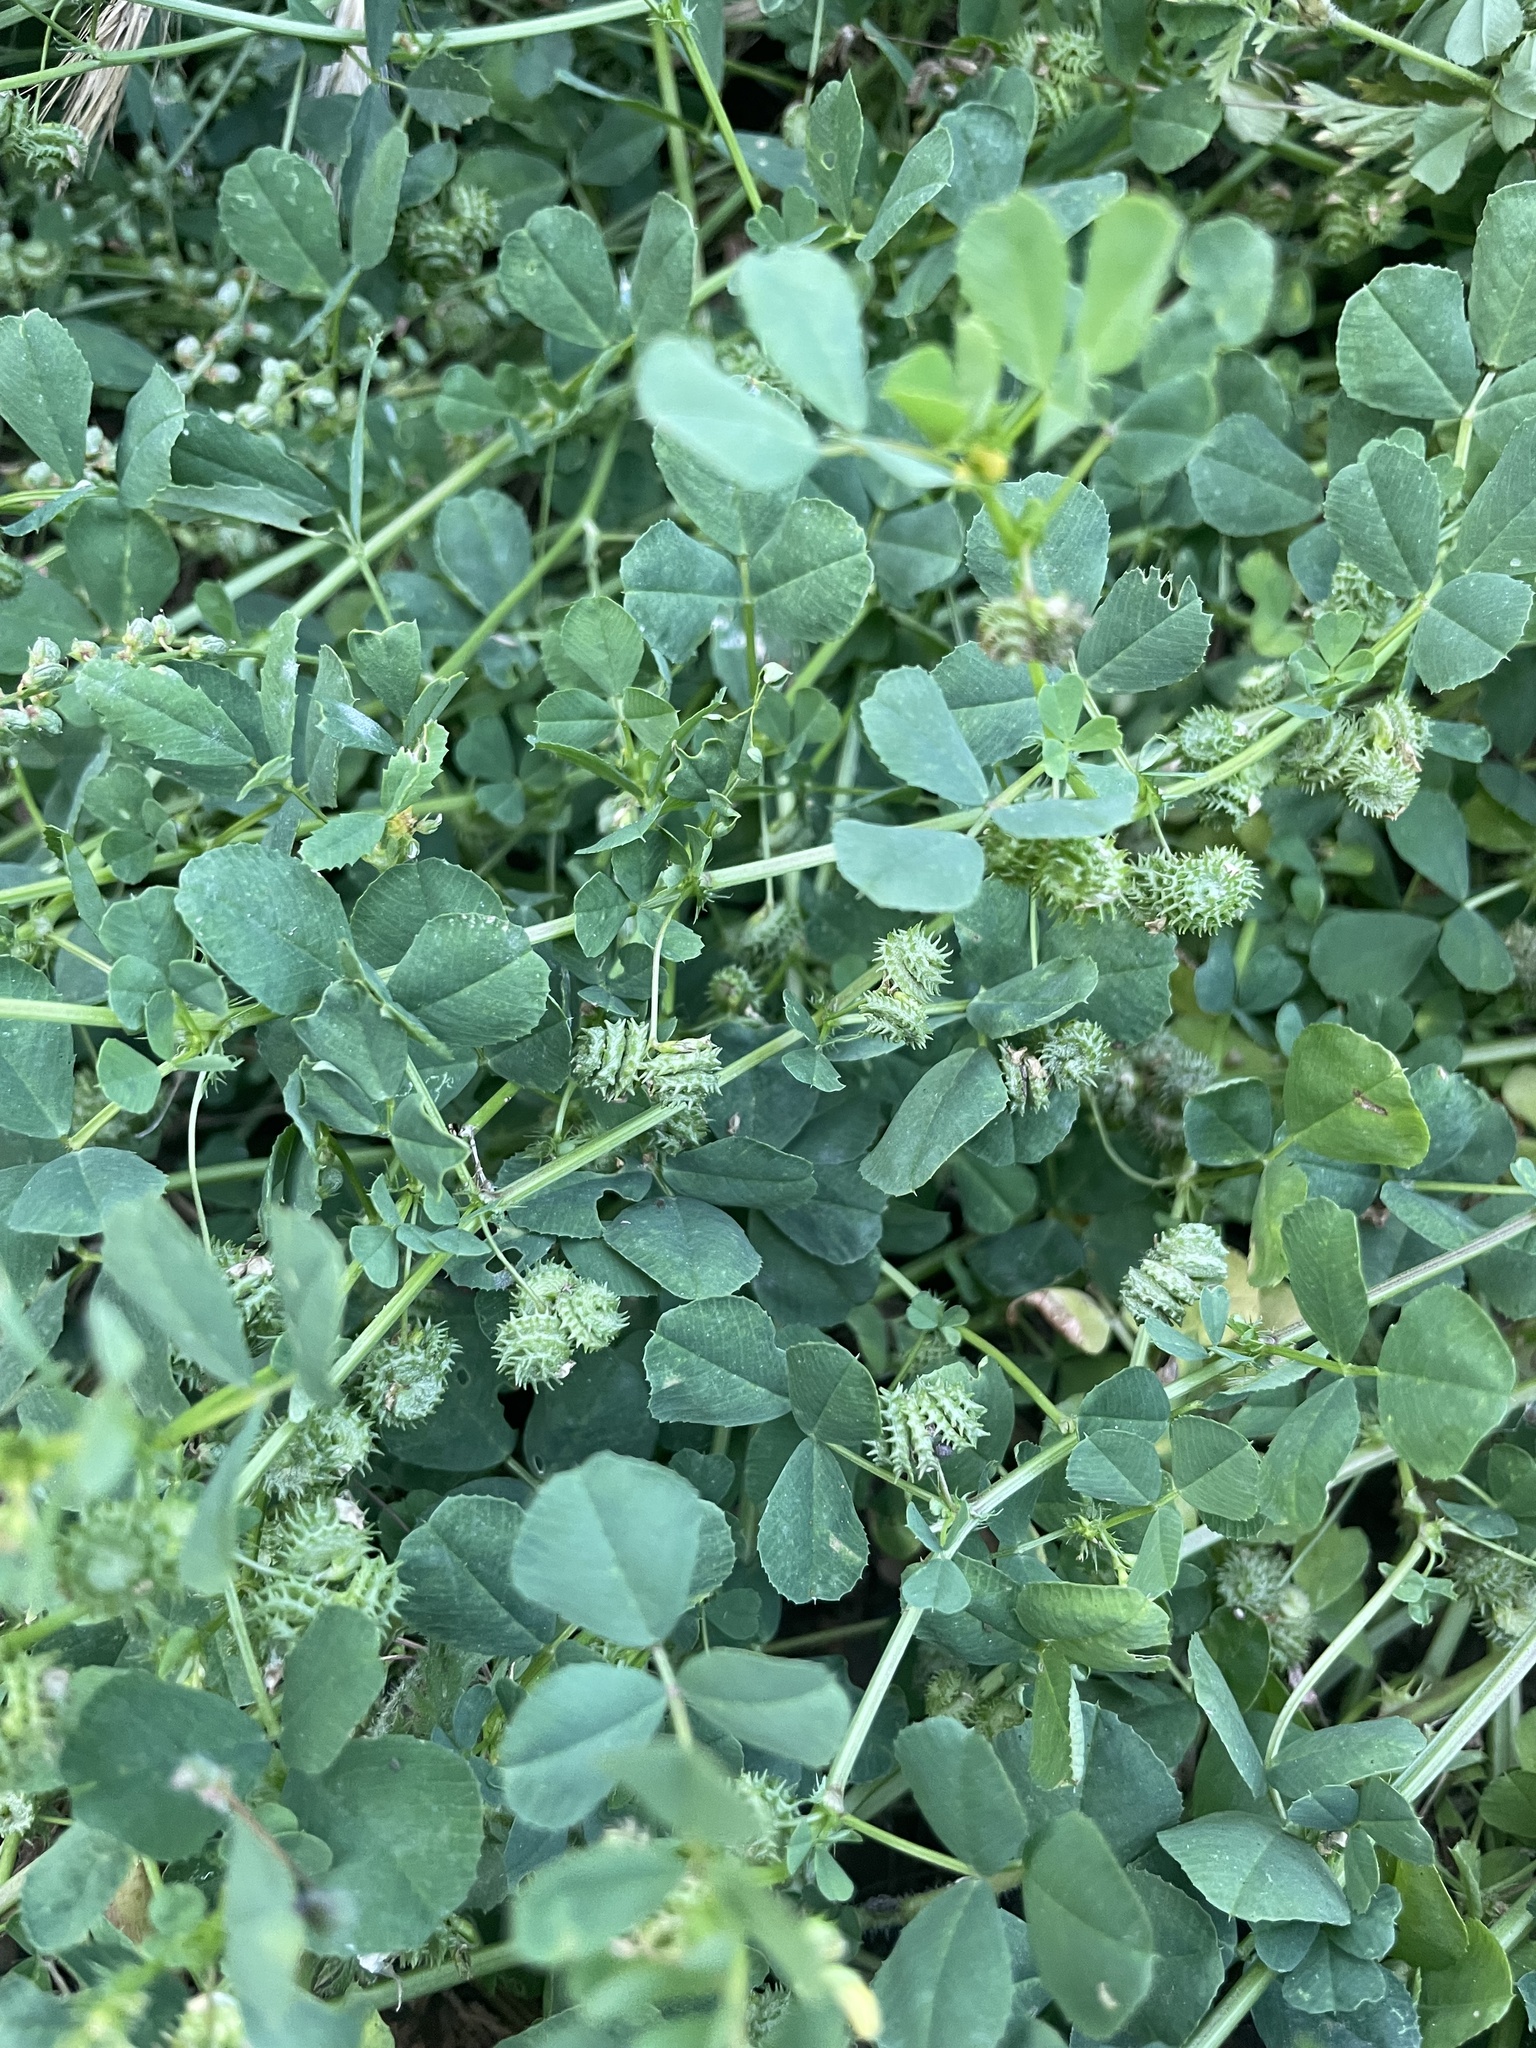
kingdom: Plantae
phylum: Tracheophyta
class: Magnoliopsida
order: Fabales
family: Fabaceae
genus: Medicago
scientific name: Medicago polymorpha
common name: Burclover
